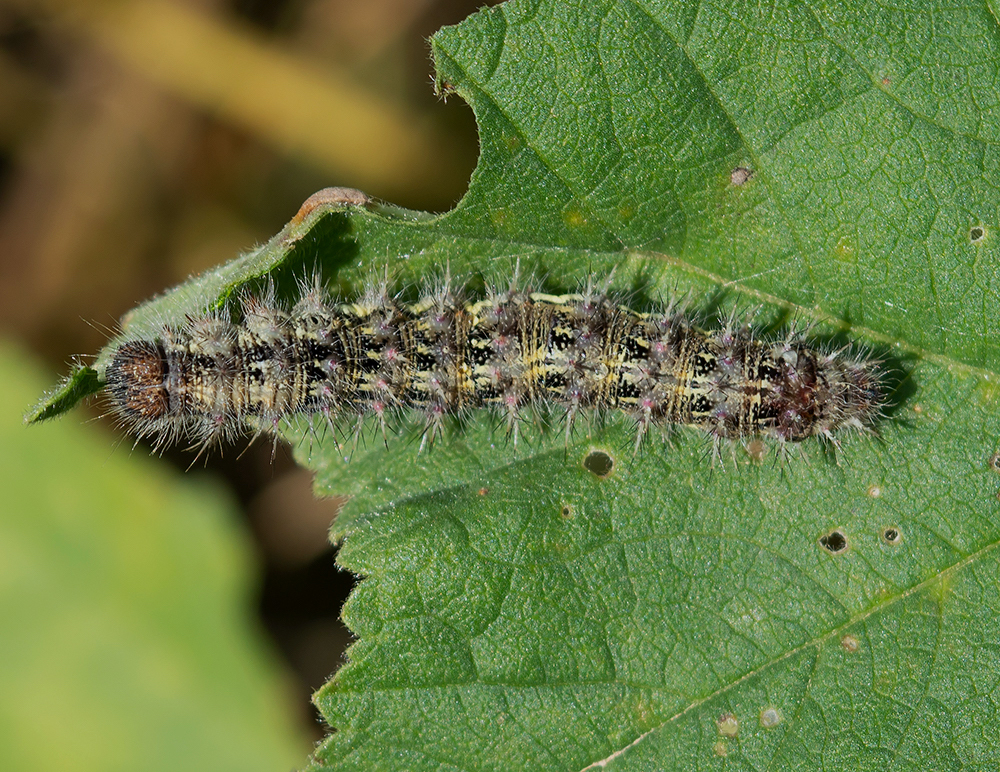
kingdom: Animalia
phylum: Arthropoda
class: Insecta
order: Lepidoptera
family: Nymphalidae
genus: Vanessa
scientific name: Vanessa cardui
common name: Painted lady
